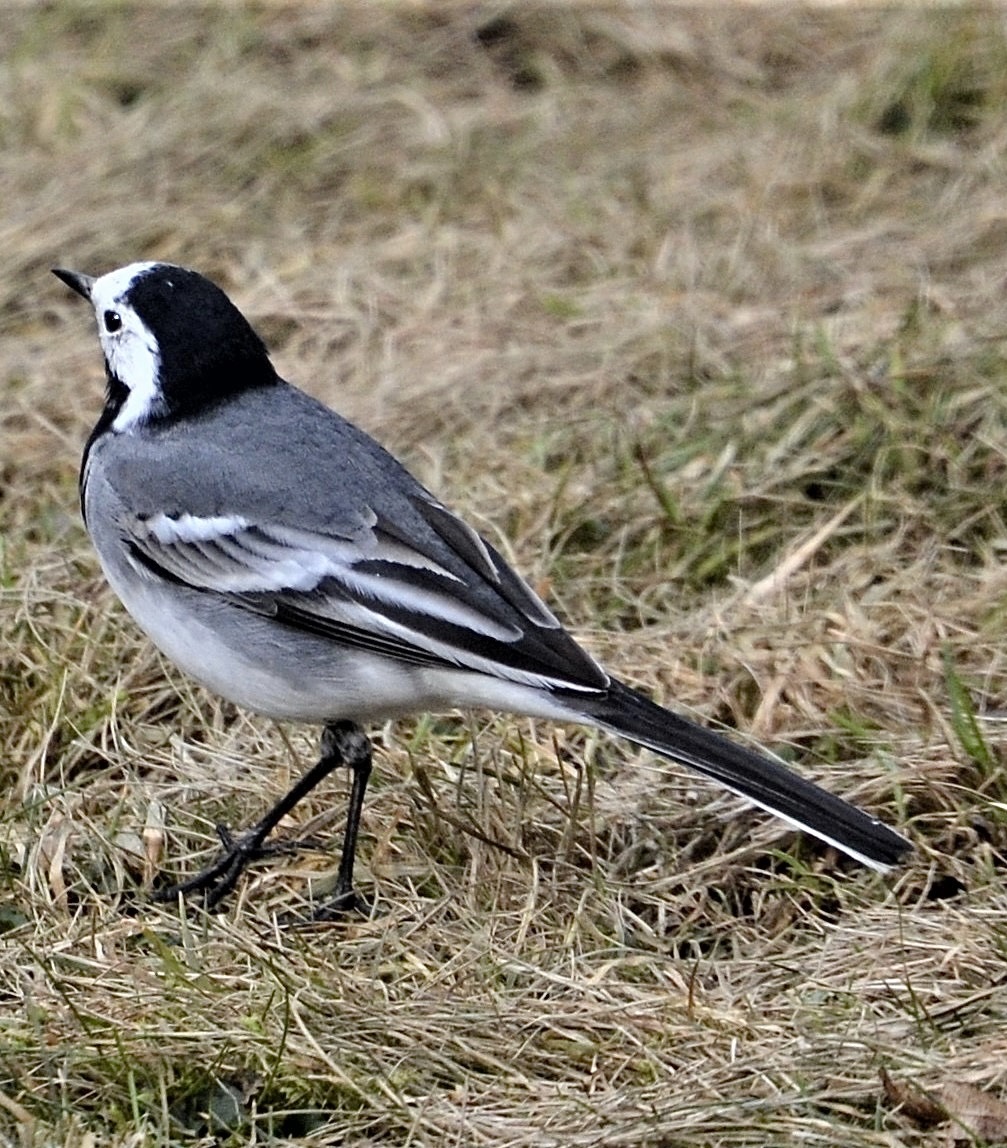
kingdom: Animalia
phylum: Chordata
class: Aves
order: Passeriformes
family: Motacillidae
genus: Motacilla
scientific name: Motacilla alba
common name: White wagtail
